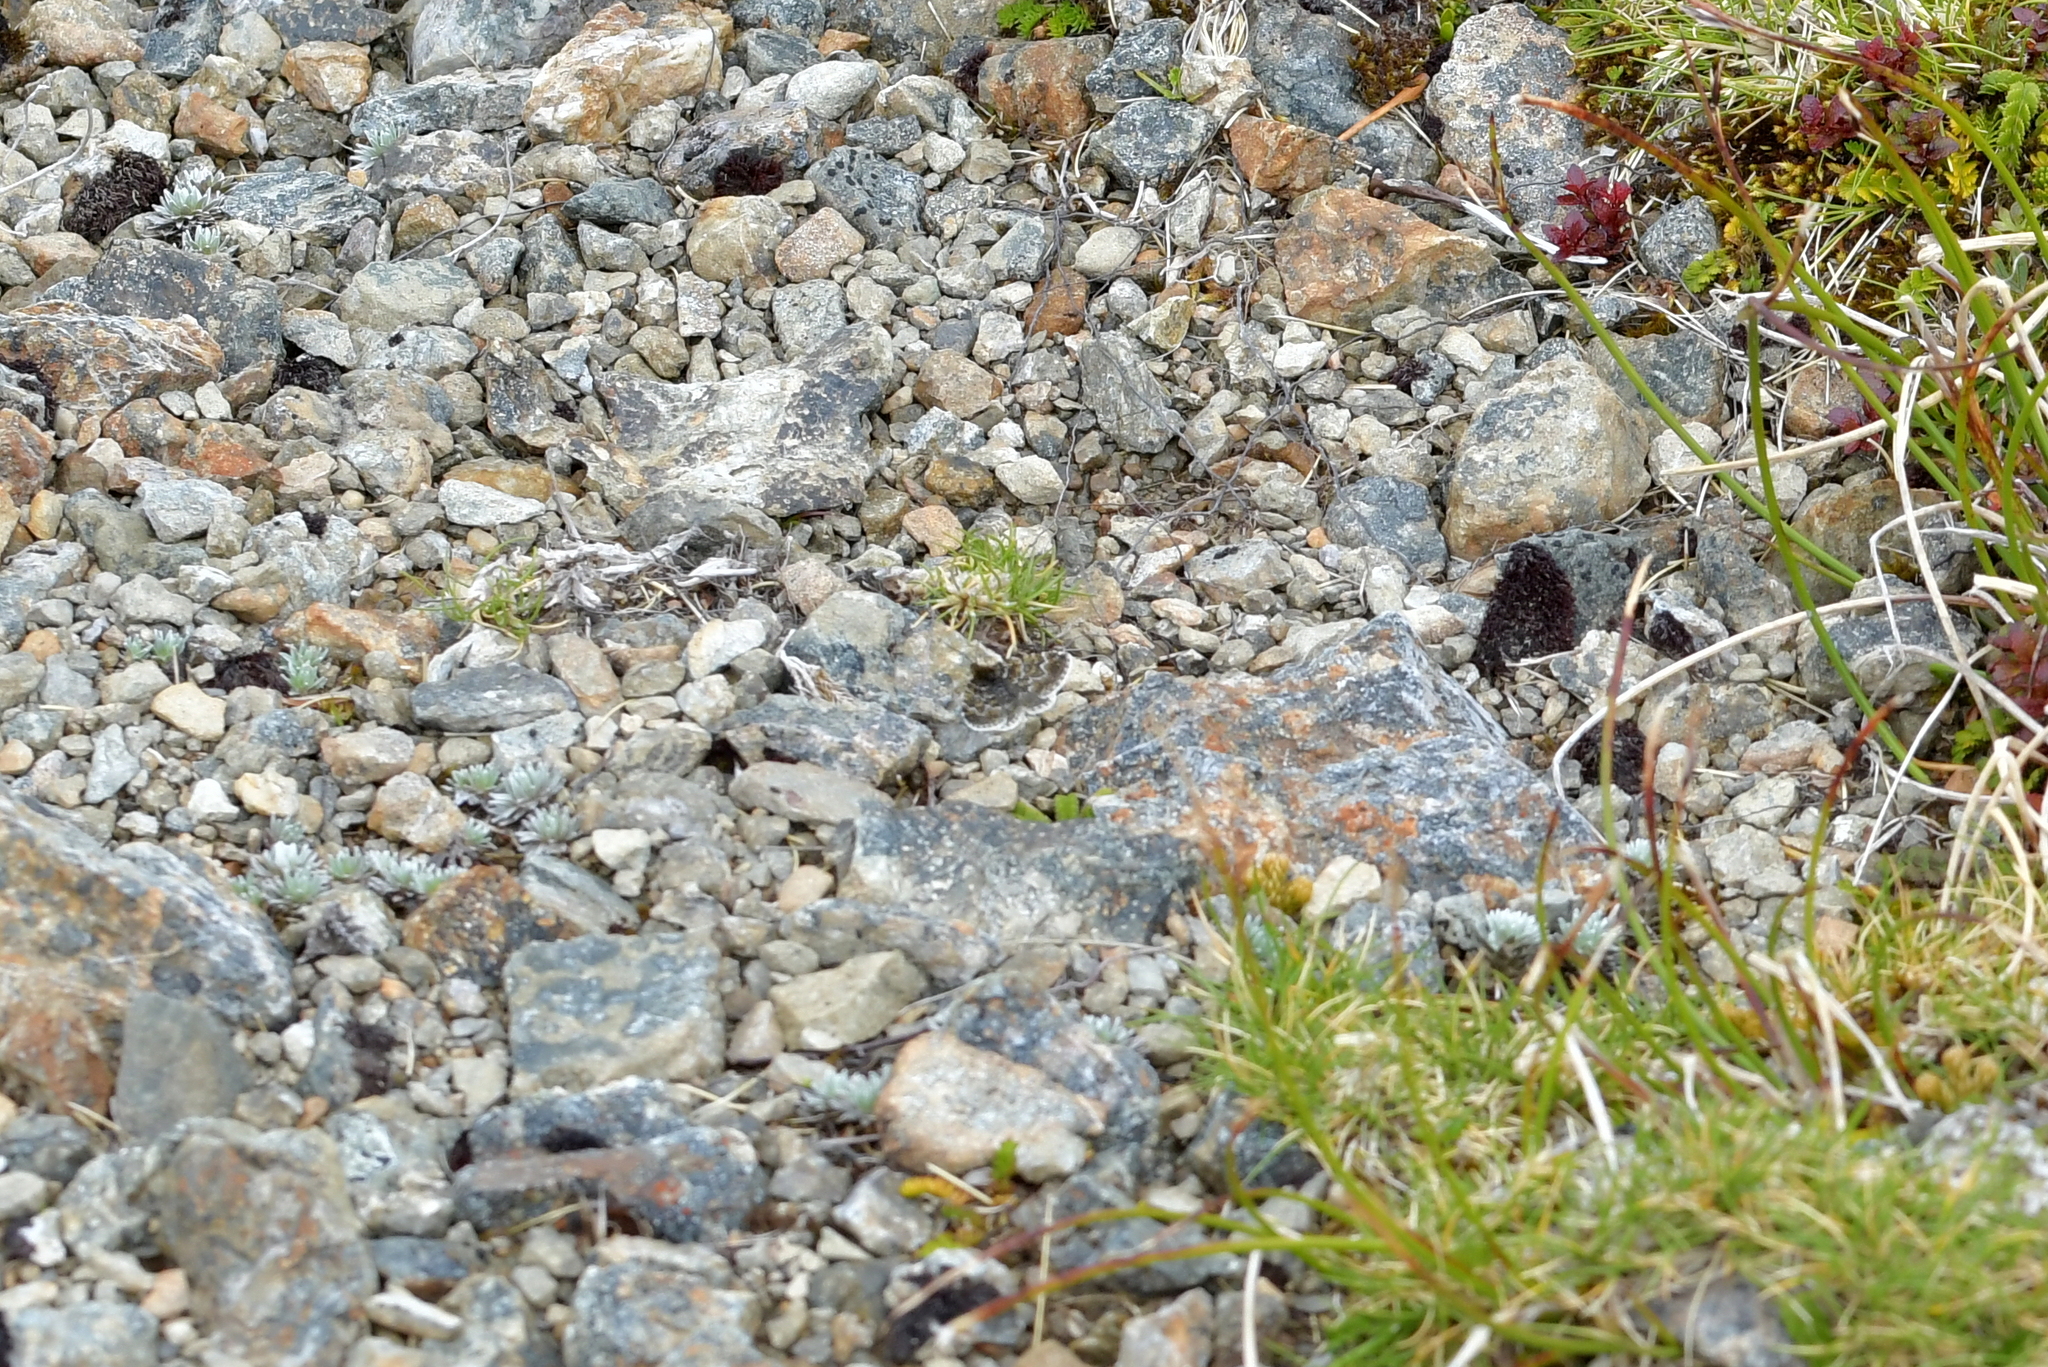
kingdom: Animalia
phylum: Arthropoda
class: Insecta
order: Lepidoptera
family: Geometridae
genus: Notoreas
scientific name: Notoreas atmogramma
